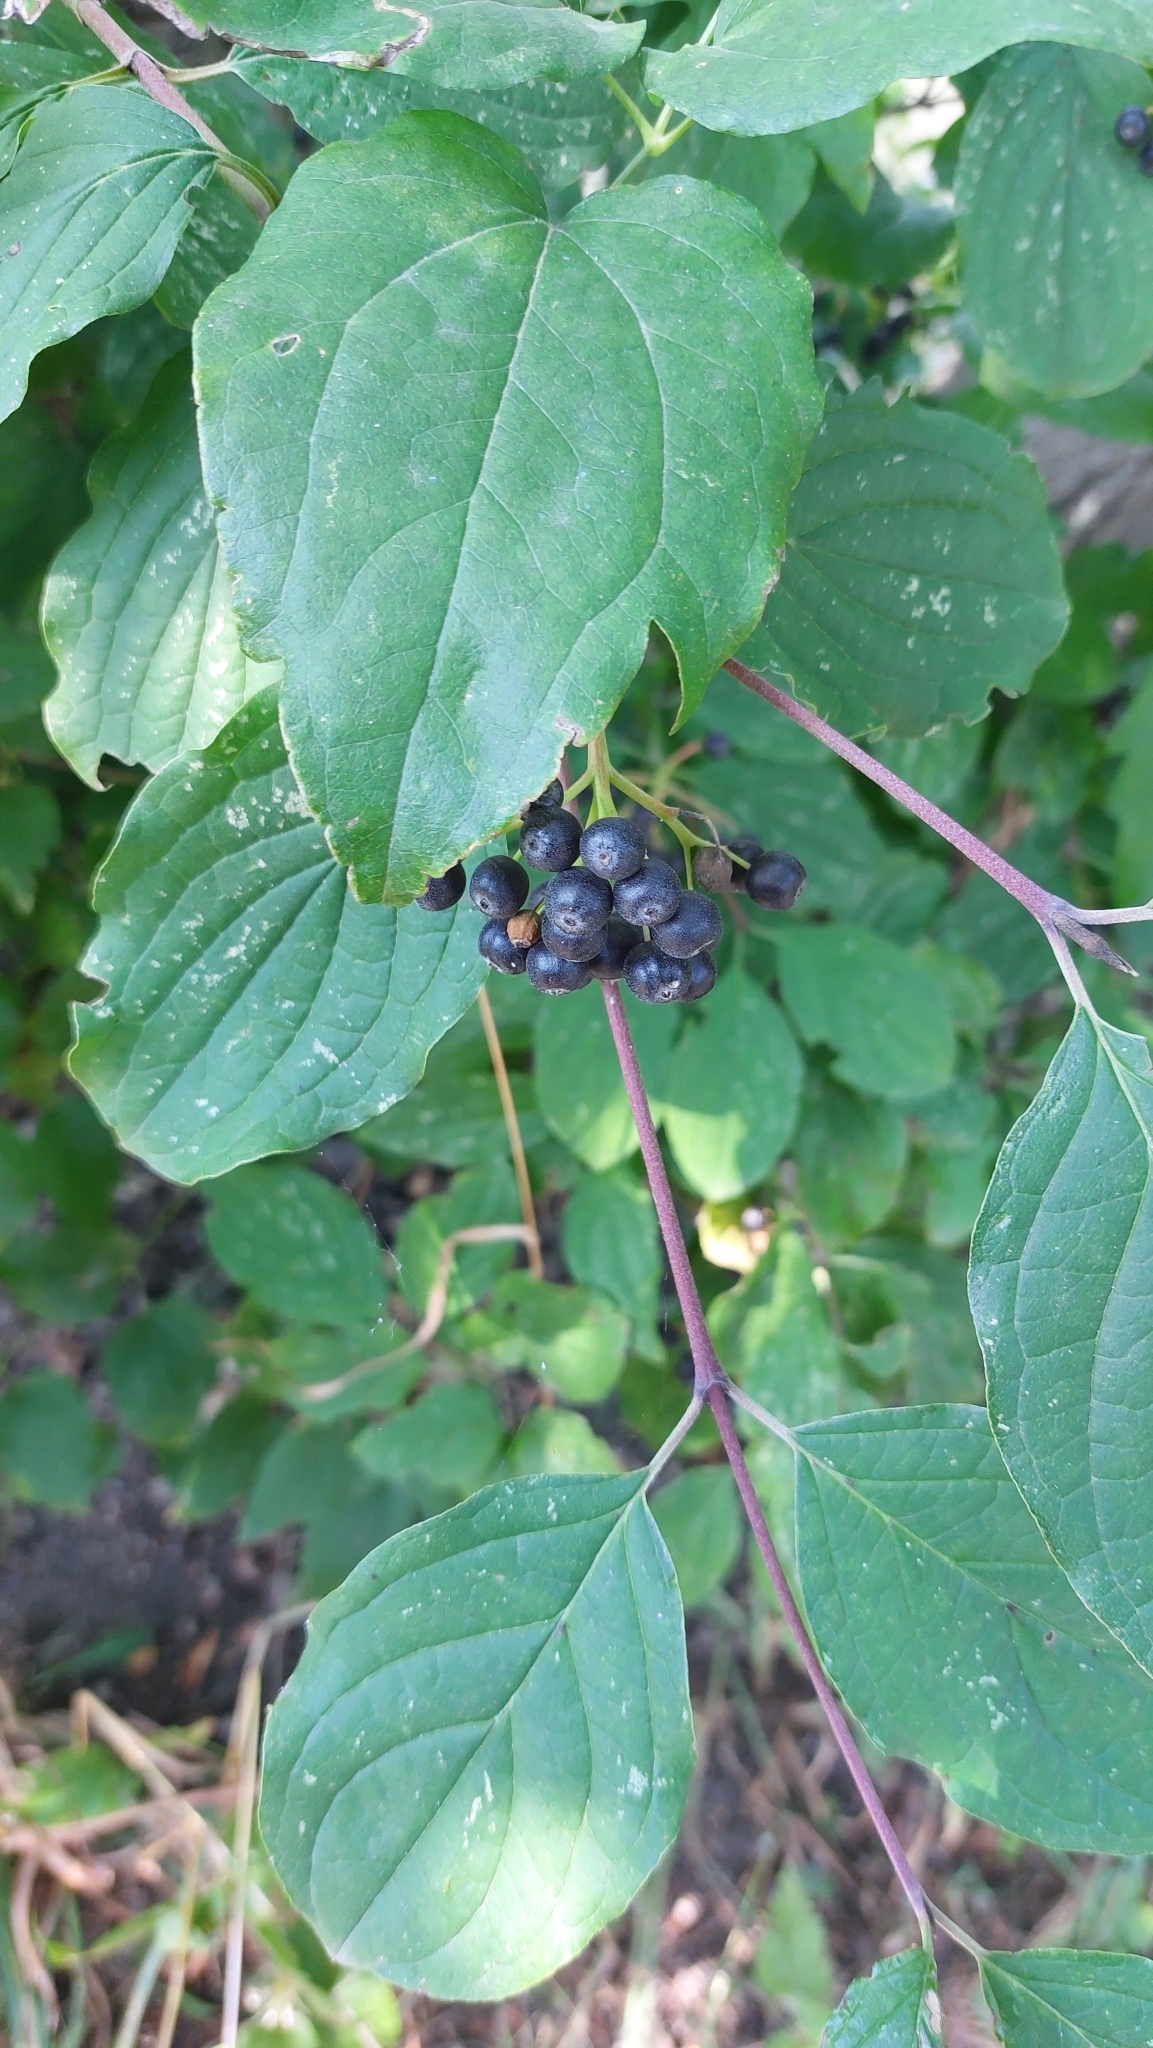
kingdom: Plantae
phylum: Tracheophyta
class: Magnoliopsida
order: Cornales
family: Cornaceae
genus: Cornus
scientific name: Cornus sanguinea
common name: Dogwood
